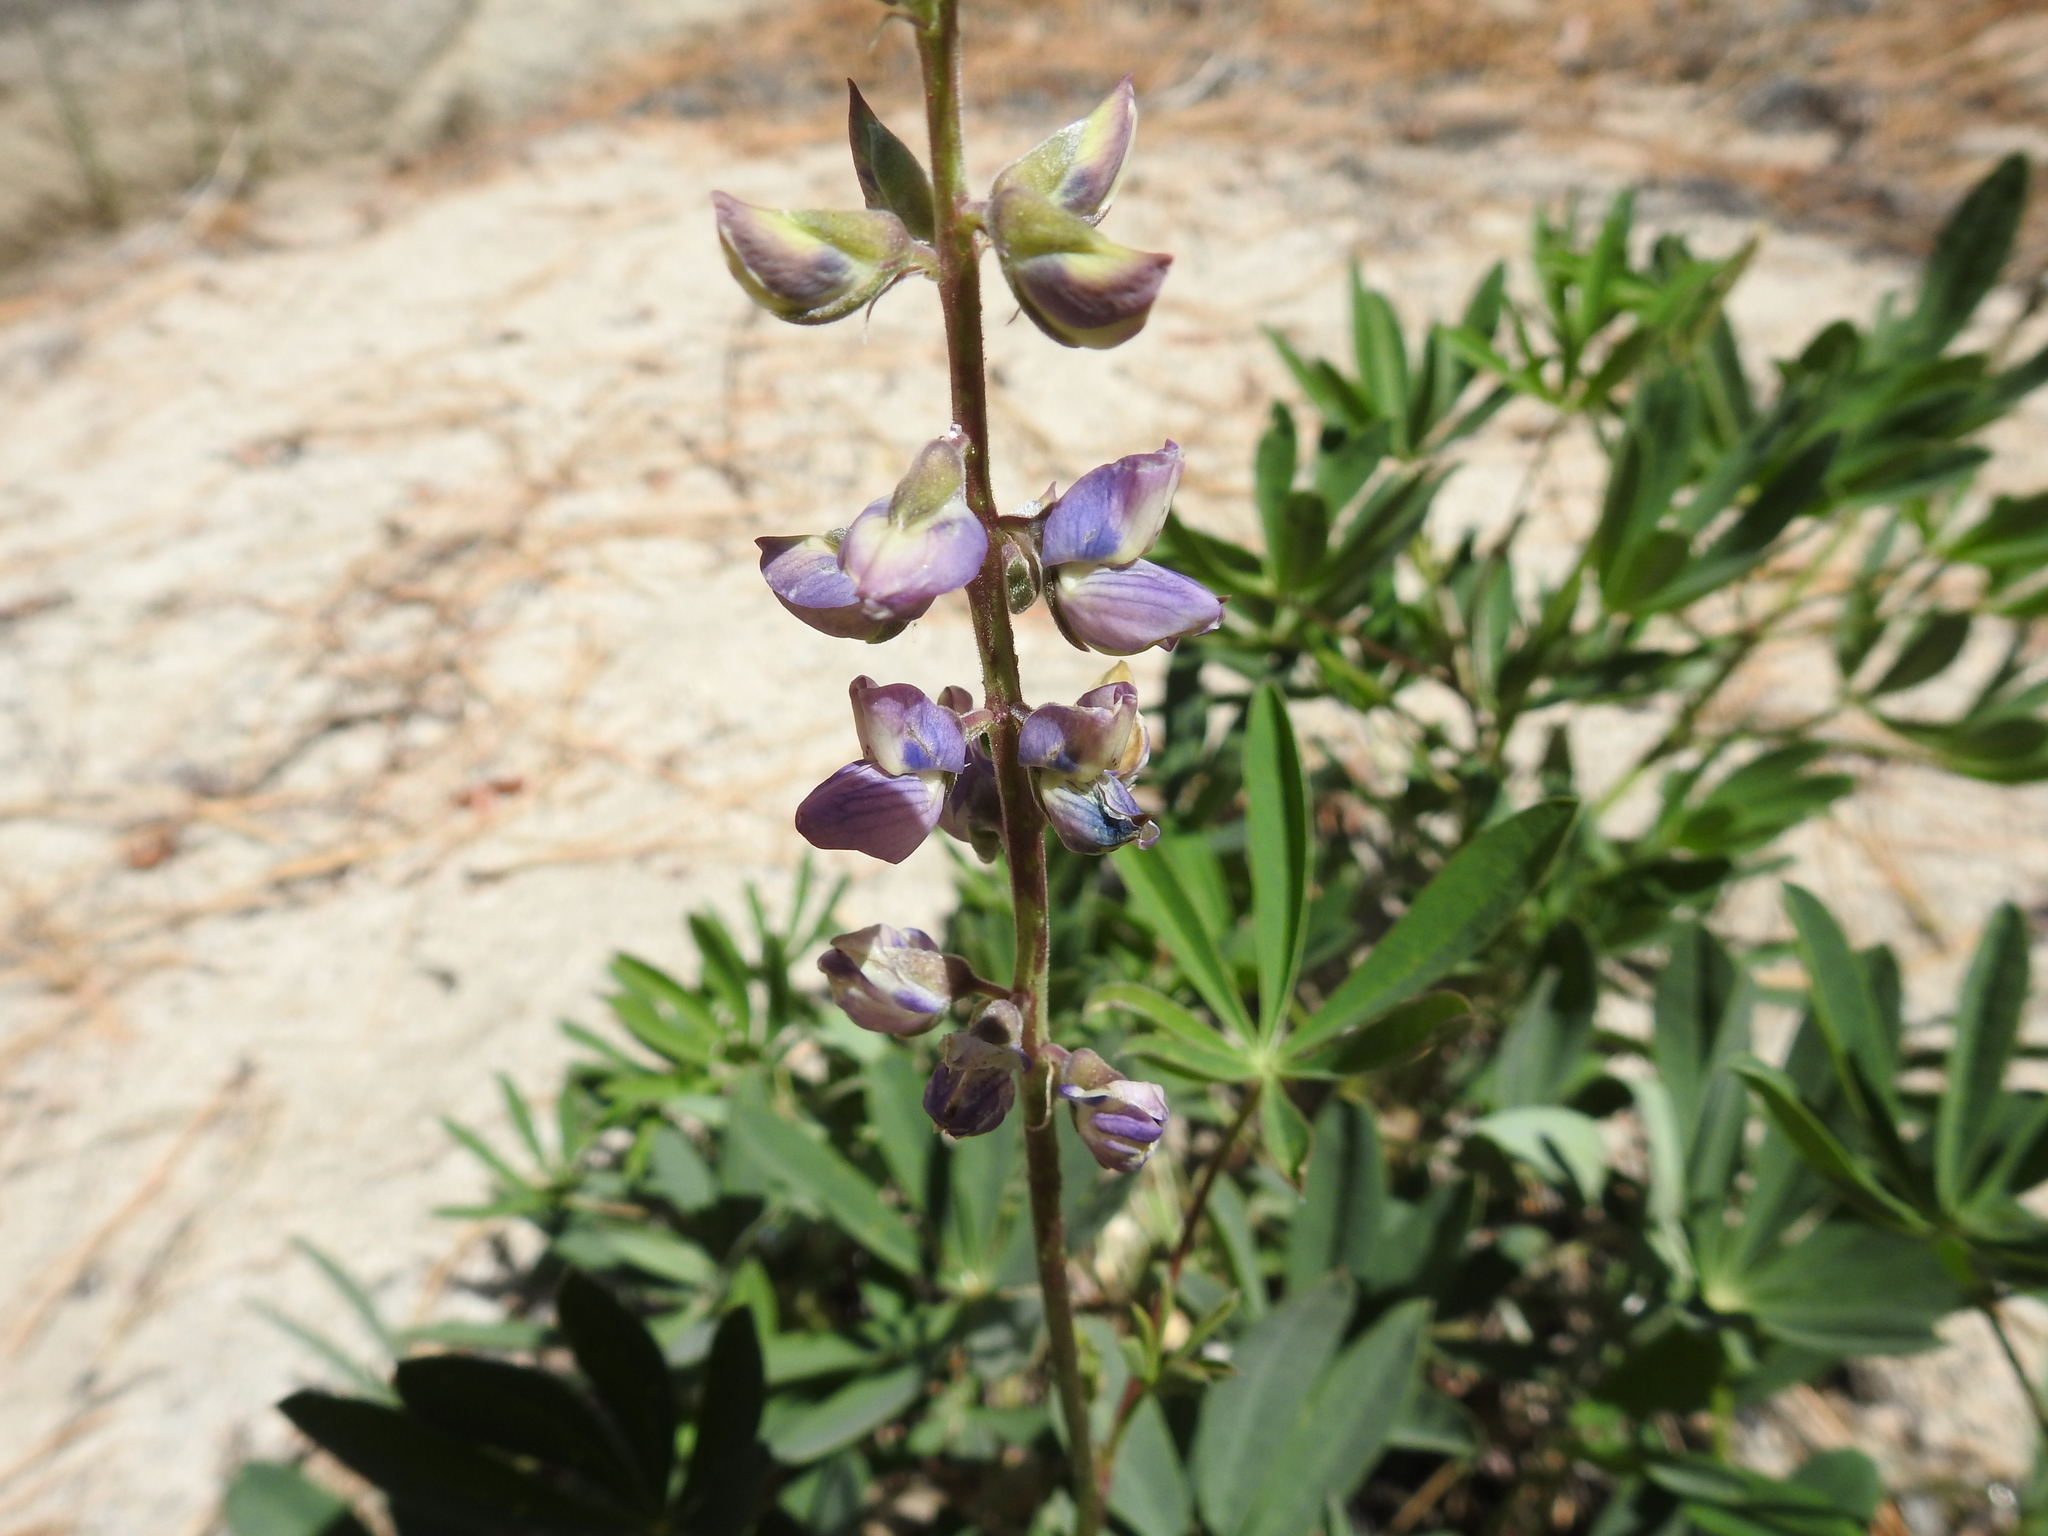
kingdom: Plantae
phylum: Tracheophyta
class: Magnoliopsida
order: Fabales
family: Fabaceae
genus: Lupinus
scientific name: Lupinus latifolius
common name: Broad-leaved lupine
